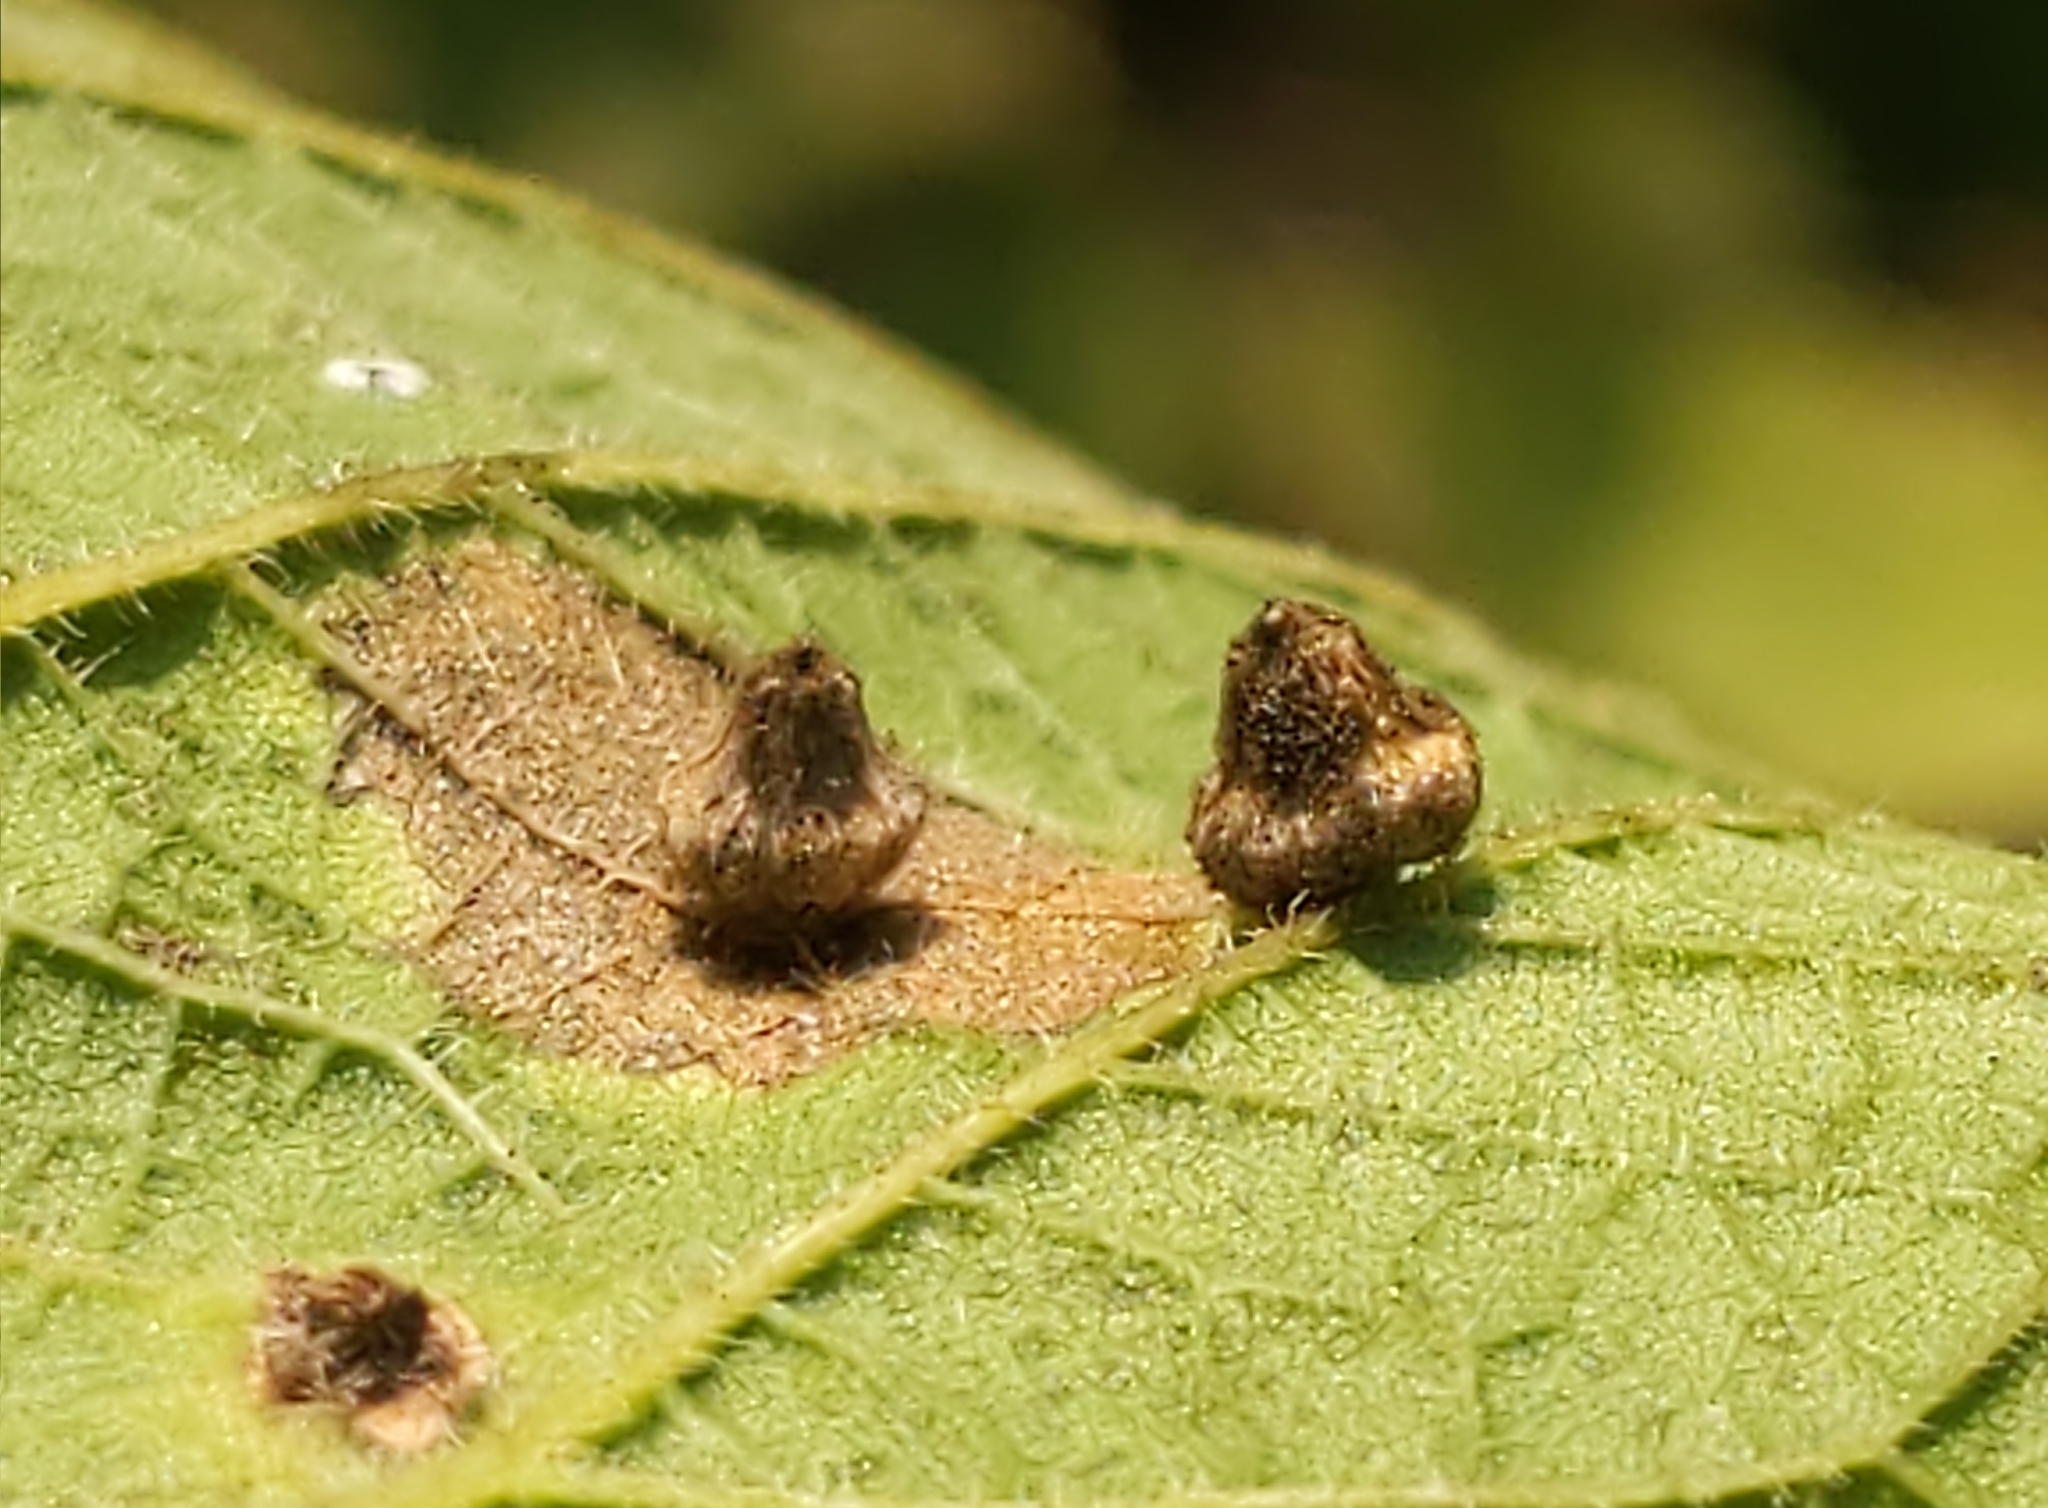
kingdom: Animalia
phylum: Arthropoda
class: Insecta
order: Diptera
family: Cecidomyiidae
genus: Celticecis
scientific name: Celticecis globosa
